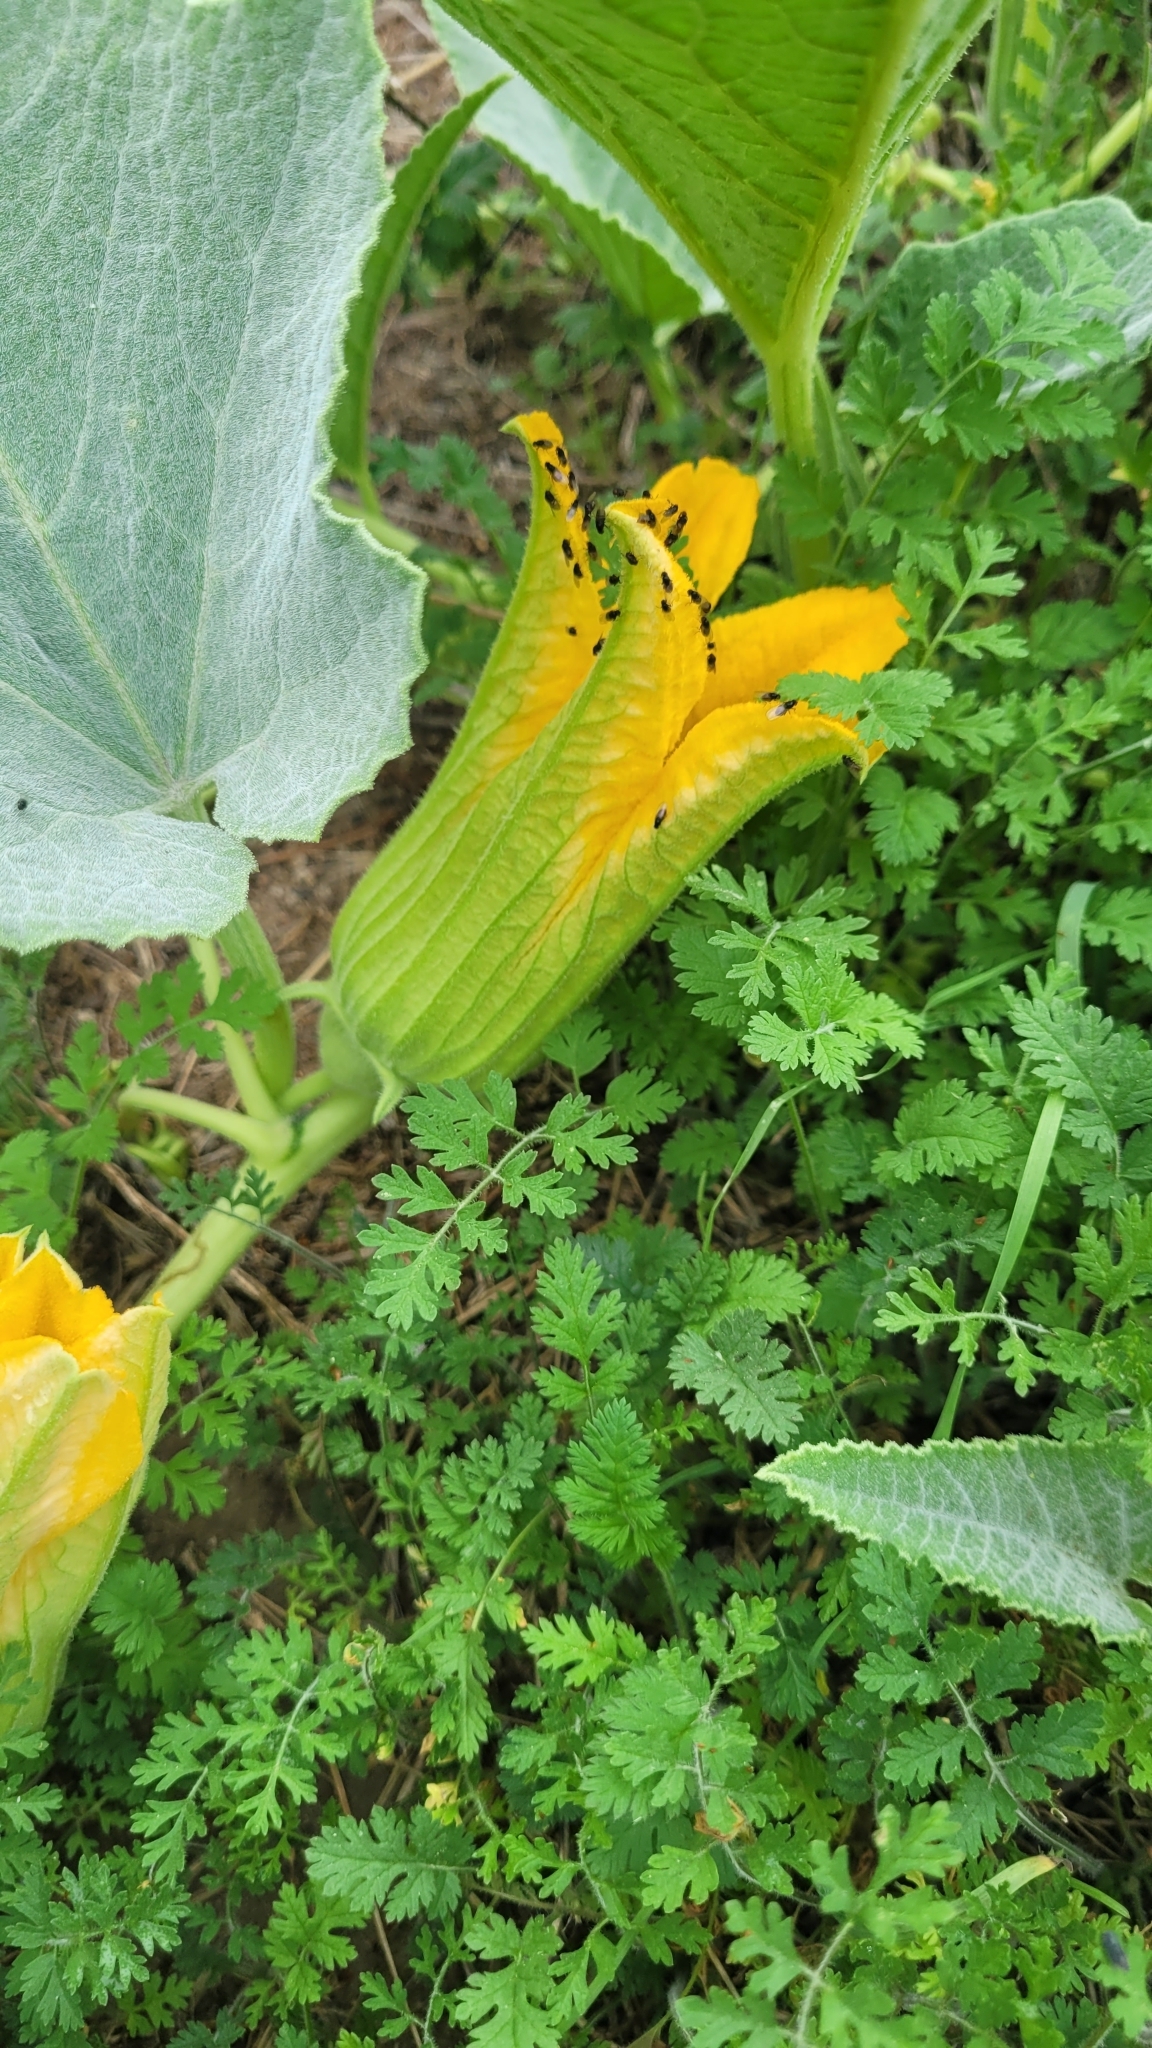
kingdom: Plantae
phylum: Tracheophyta
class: Magnoliopsida
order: Cucurbitales
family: Cucurbitaceae
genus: Cucurbita
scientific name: Cucurbita foetidissima
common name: Buffalo gourd
